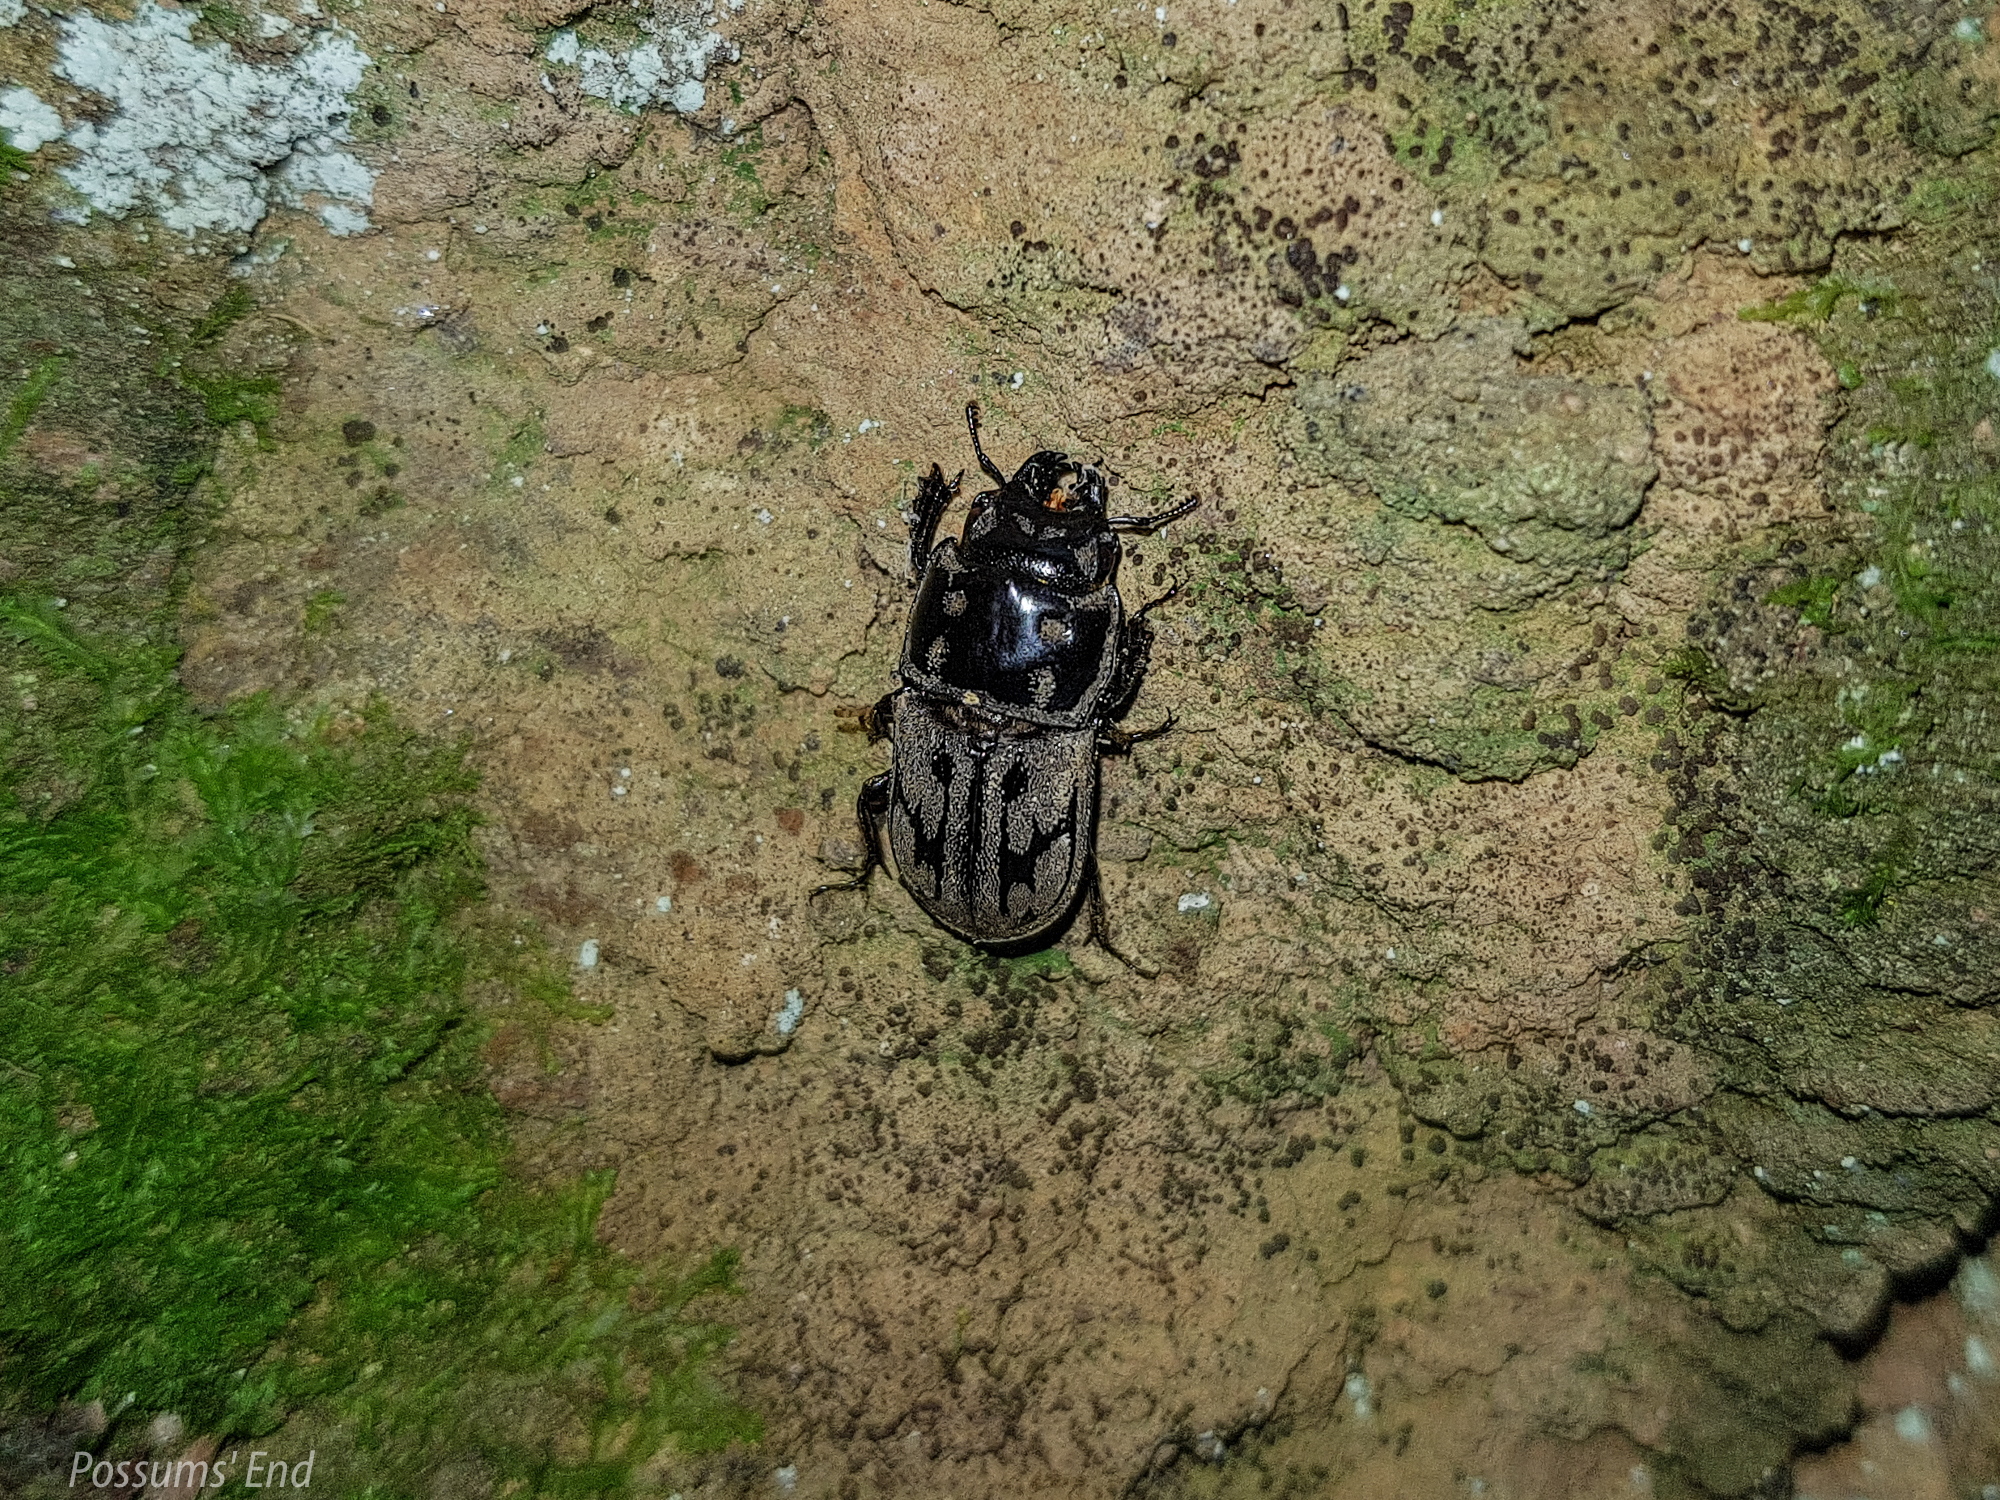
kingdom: Animalia
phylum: Arthropoda
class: Insecta
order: Coleoptera
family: Lucanidae
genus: Paralissotes
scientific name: Paralissotes reticulatus
